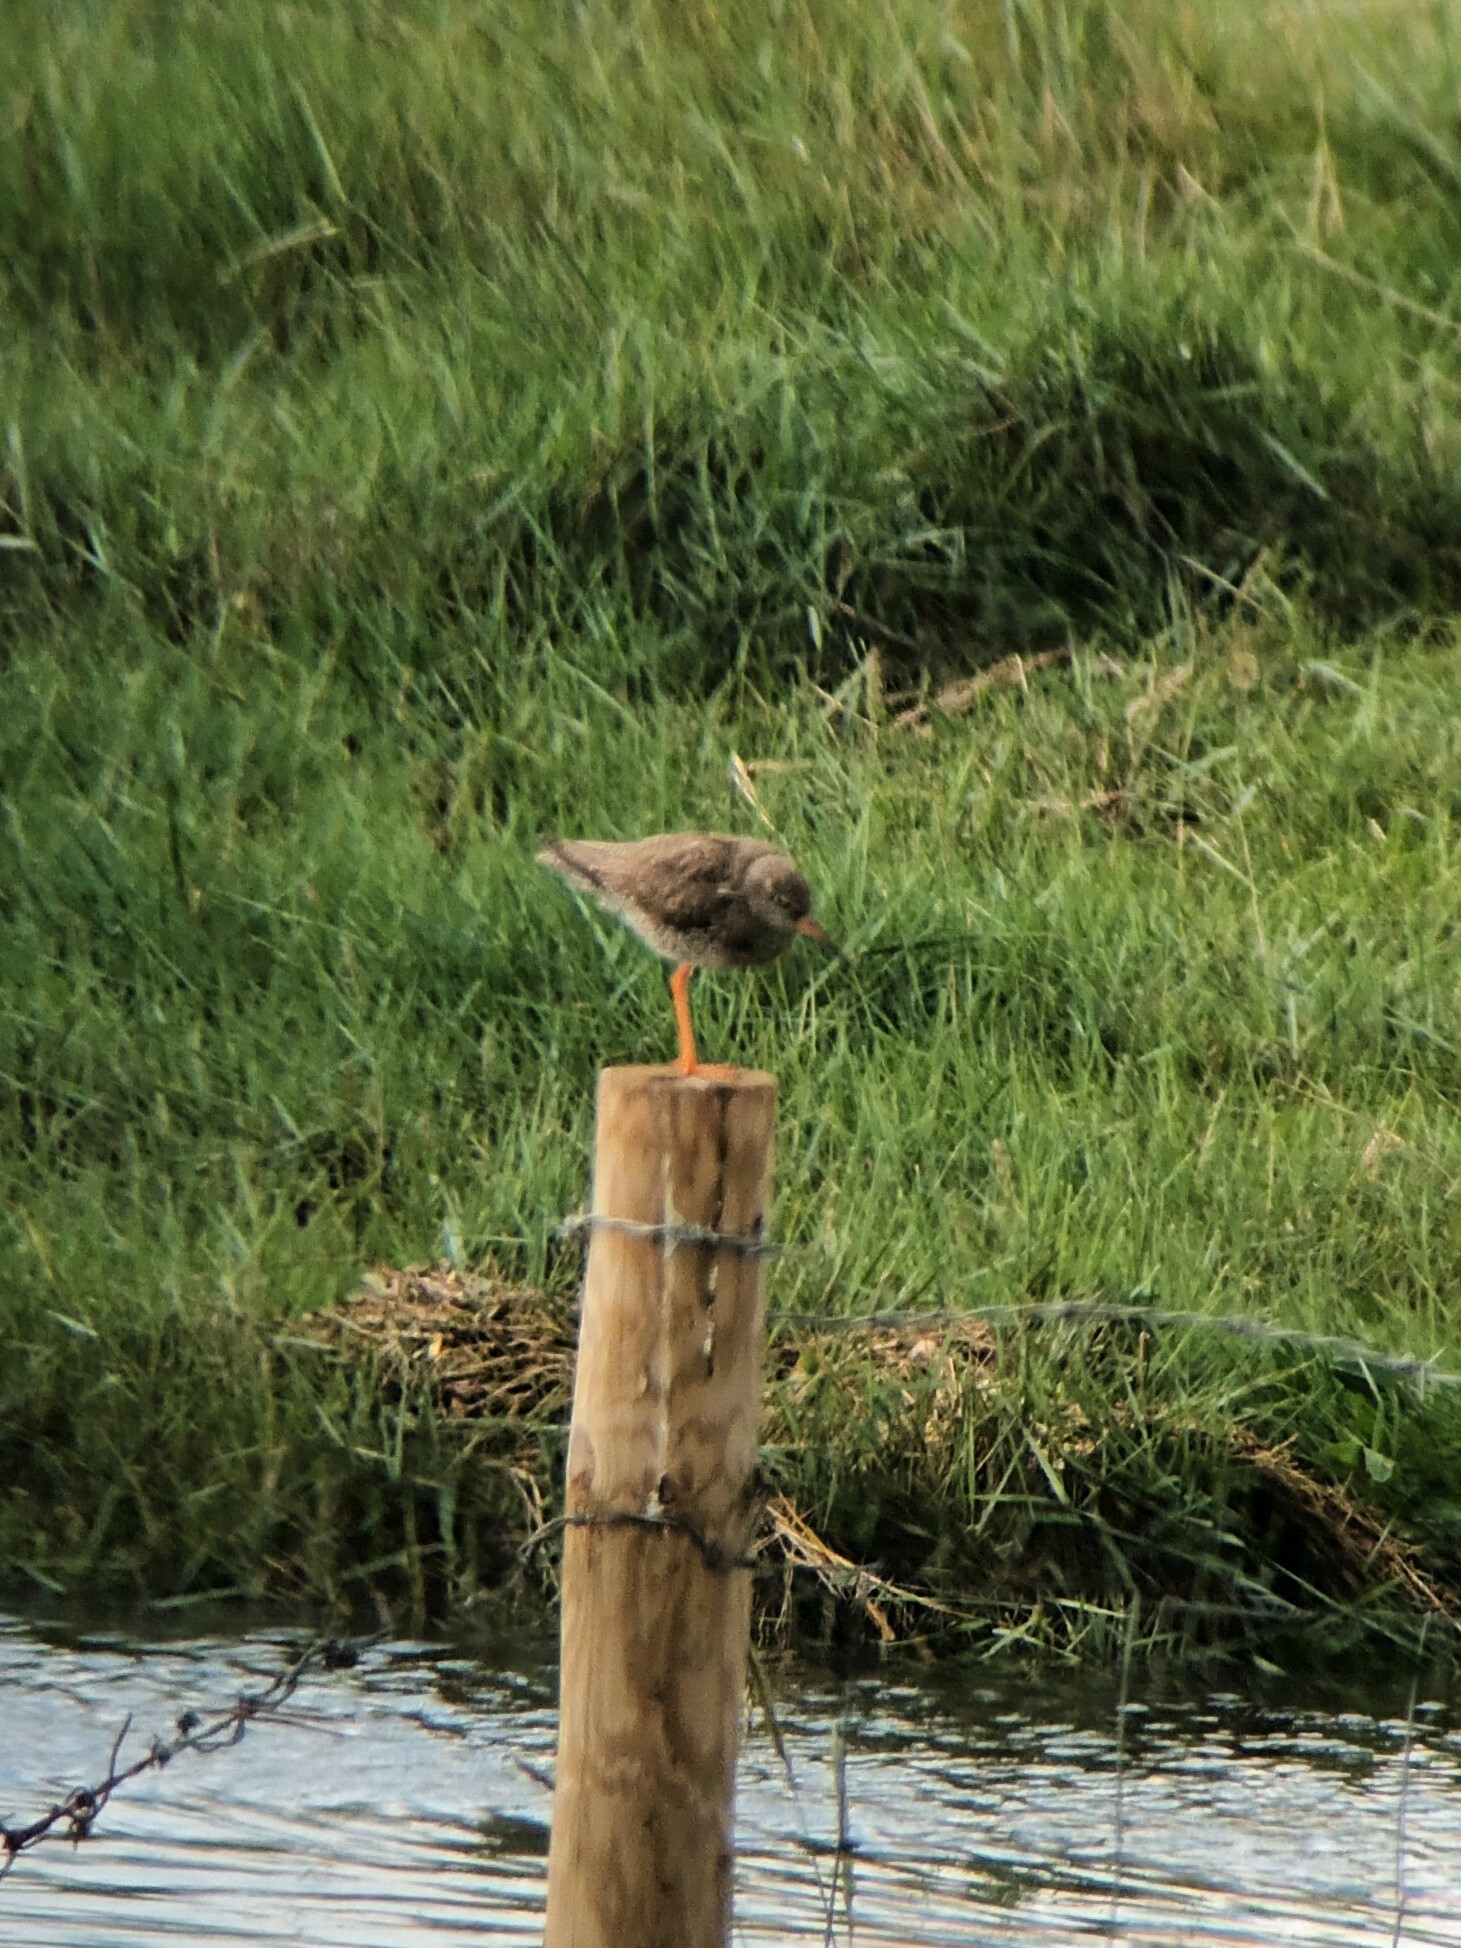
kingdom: Animalia
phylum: Chordata
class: Aves
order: Charadriiformes
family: Scolopacidae
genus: Tringa
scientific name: Tringa totanus
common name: Common redshank
